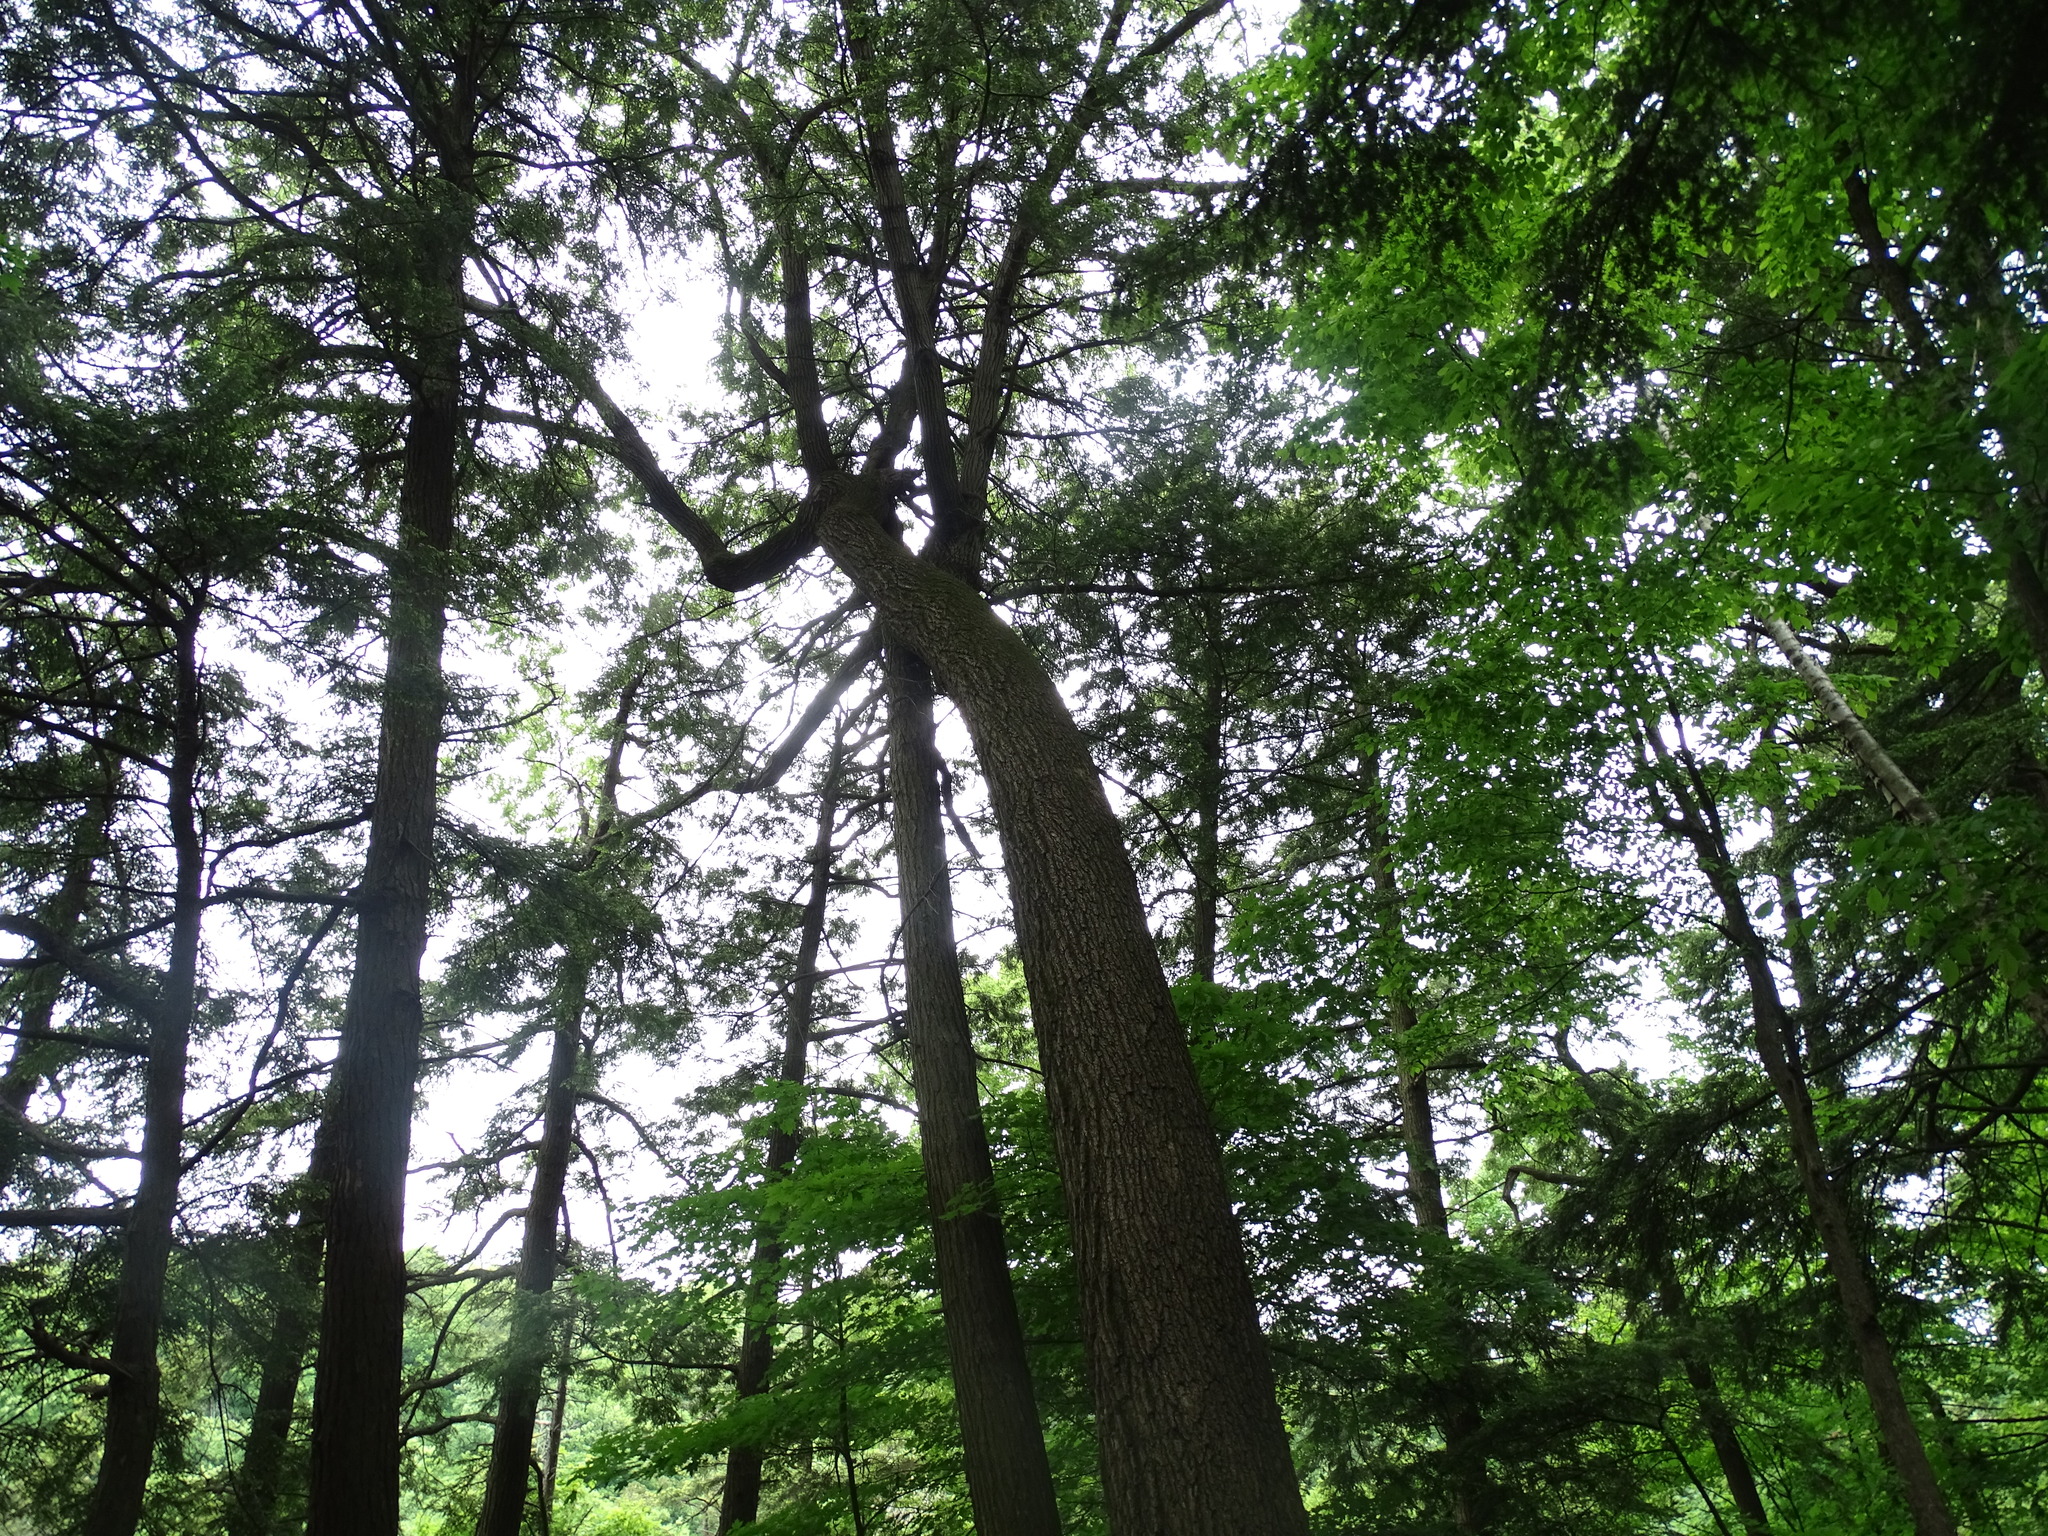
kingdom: Plantae
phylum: Tracheophyta
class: Magnoliopsida
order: Fagales
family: Fagaceae
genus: Quercus
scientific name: Quercus velutina
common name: Black oak
